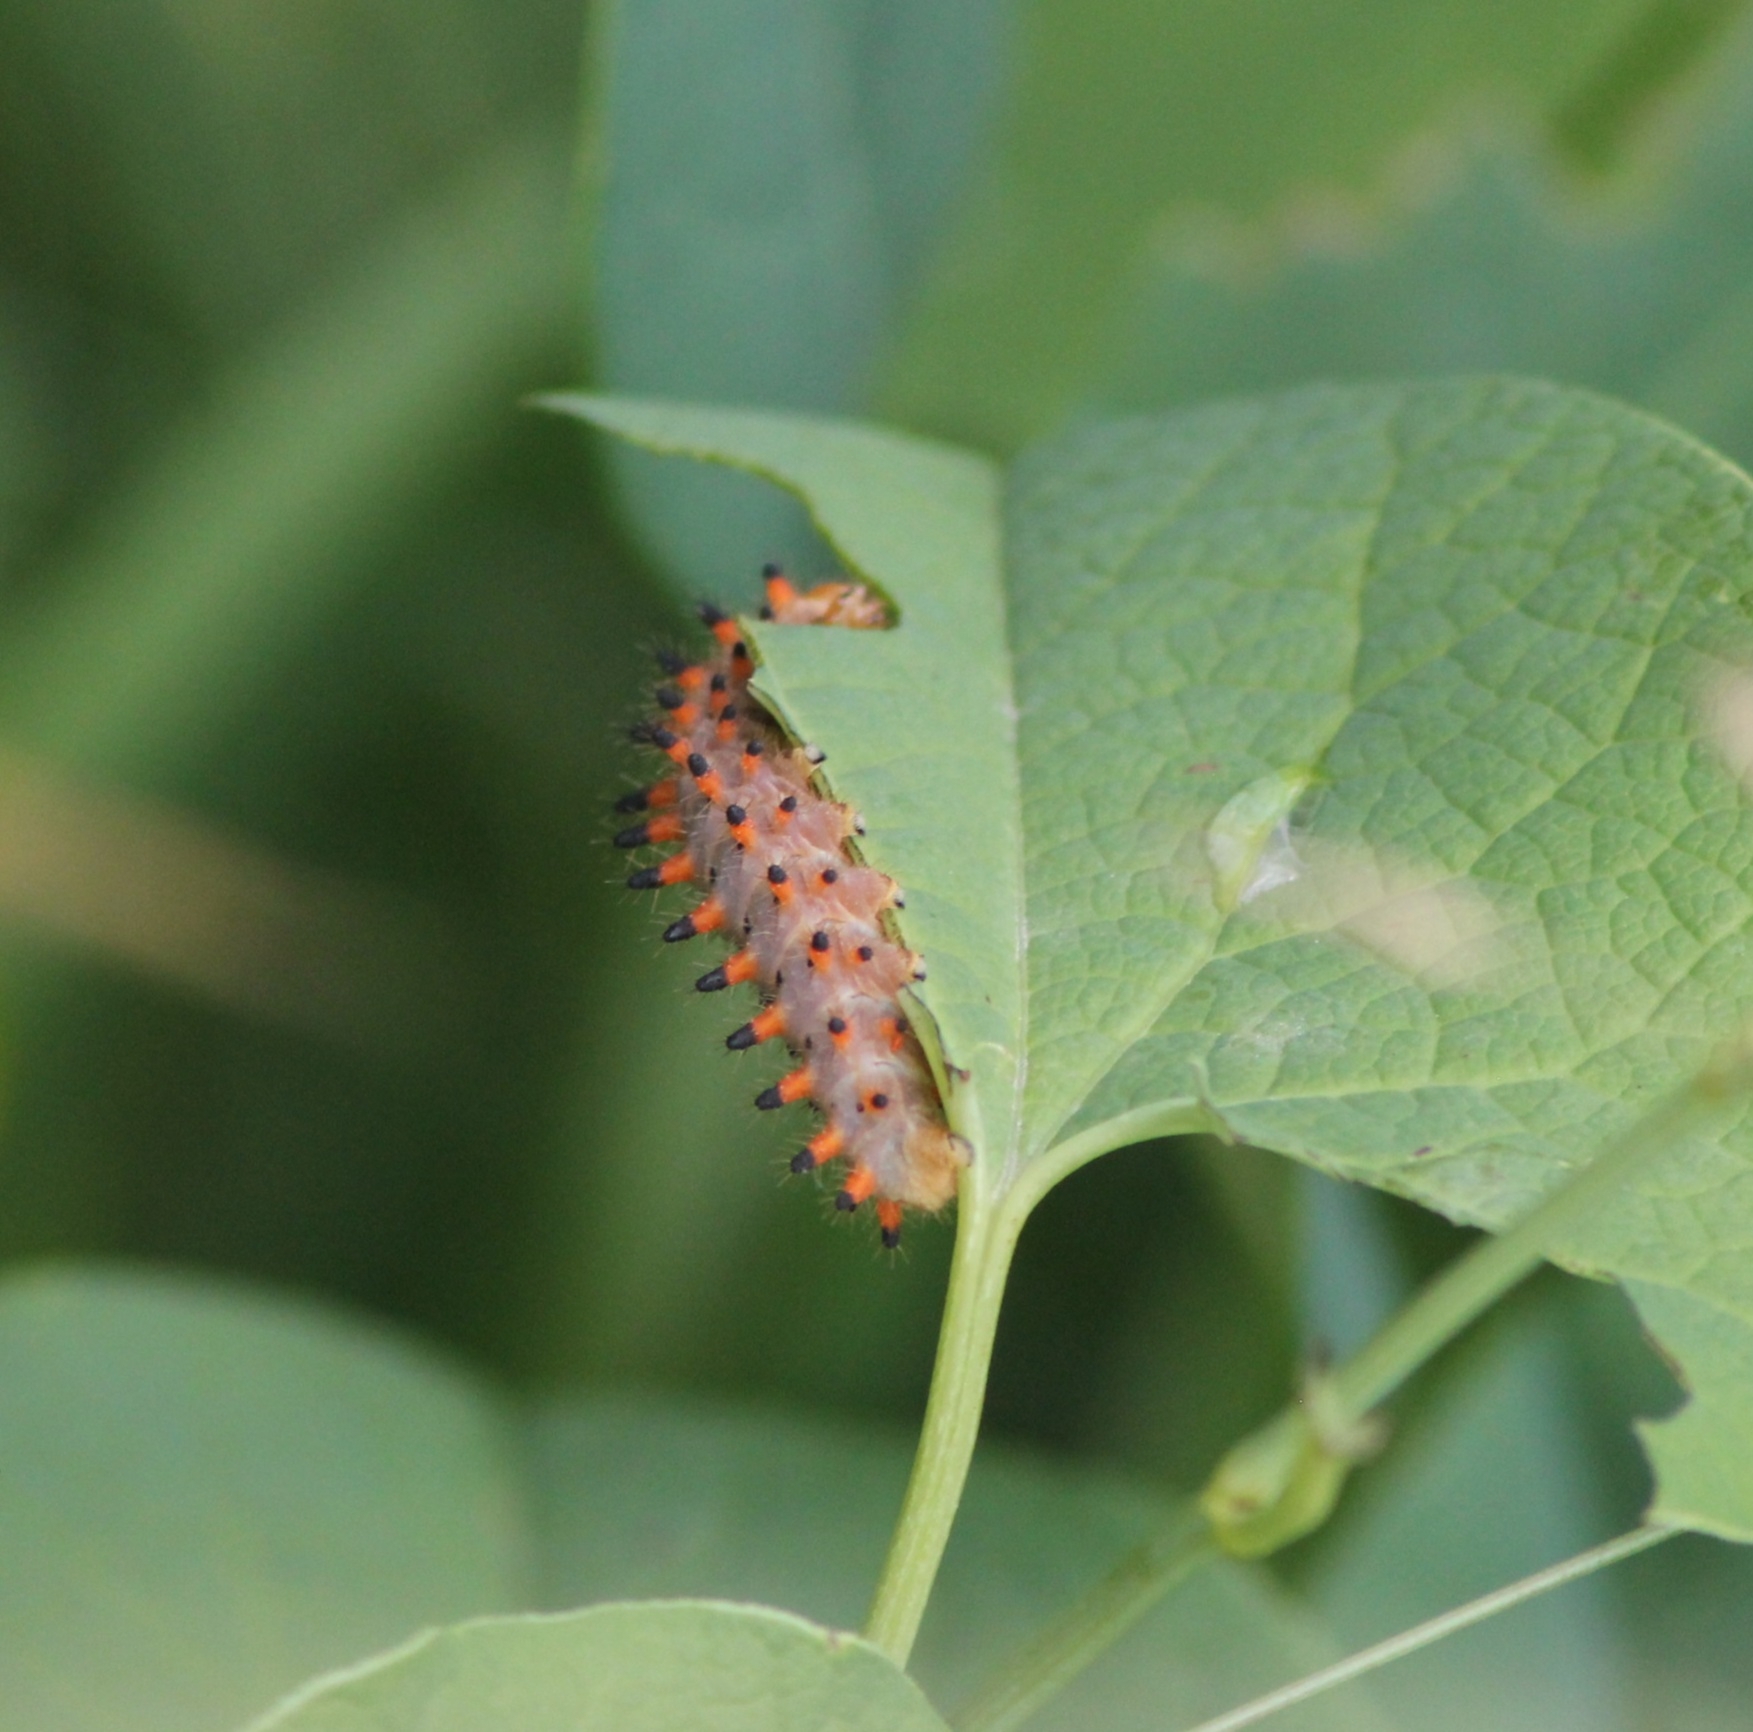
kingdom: Animalia
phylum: Arthropoda
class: Insecta
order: Lepidoptera
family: Papilionidae
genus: Zerynthia
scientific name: Zerynthia polyxena
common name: Southern festoon
